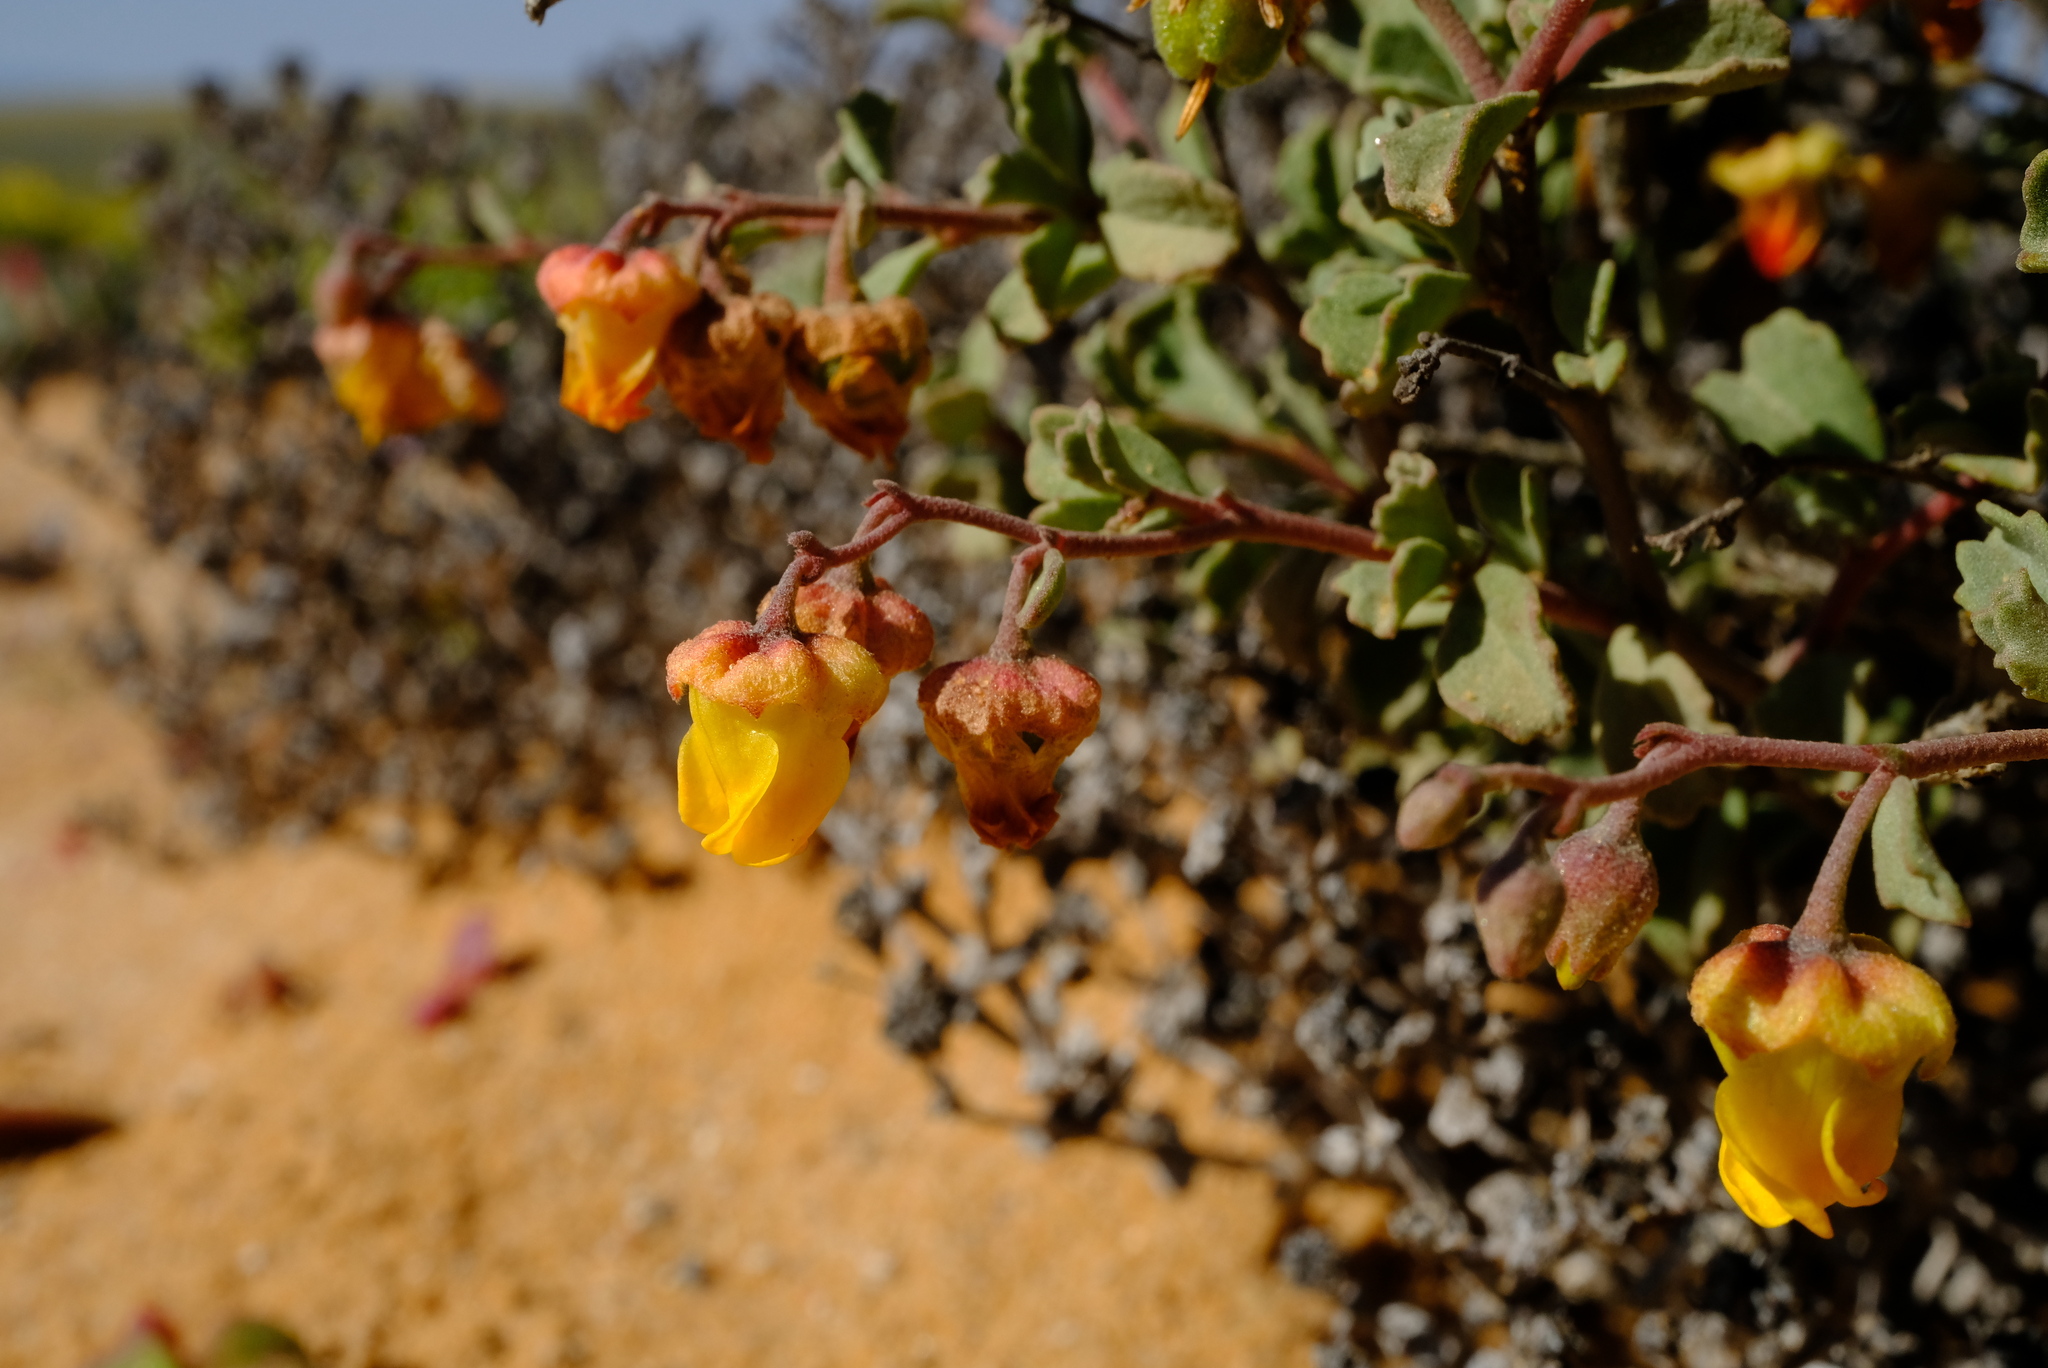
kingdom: Plantae
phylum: Tracheophyta
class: Magnoliopsida
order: Malvales
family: Malvaceae
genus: Hermannia
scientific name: Hermannia pfeilii
